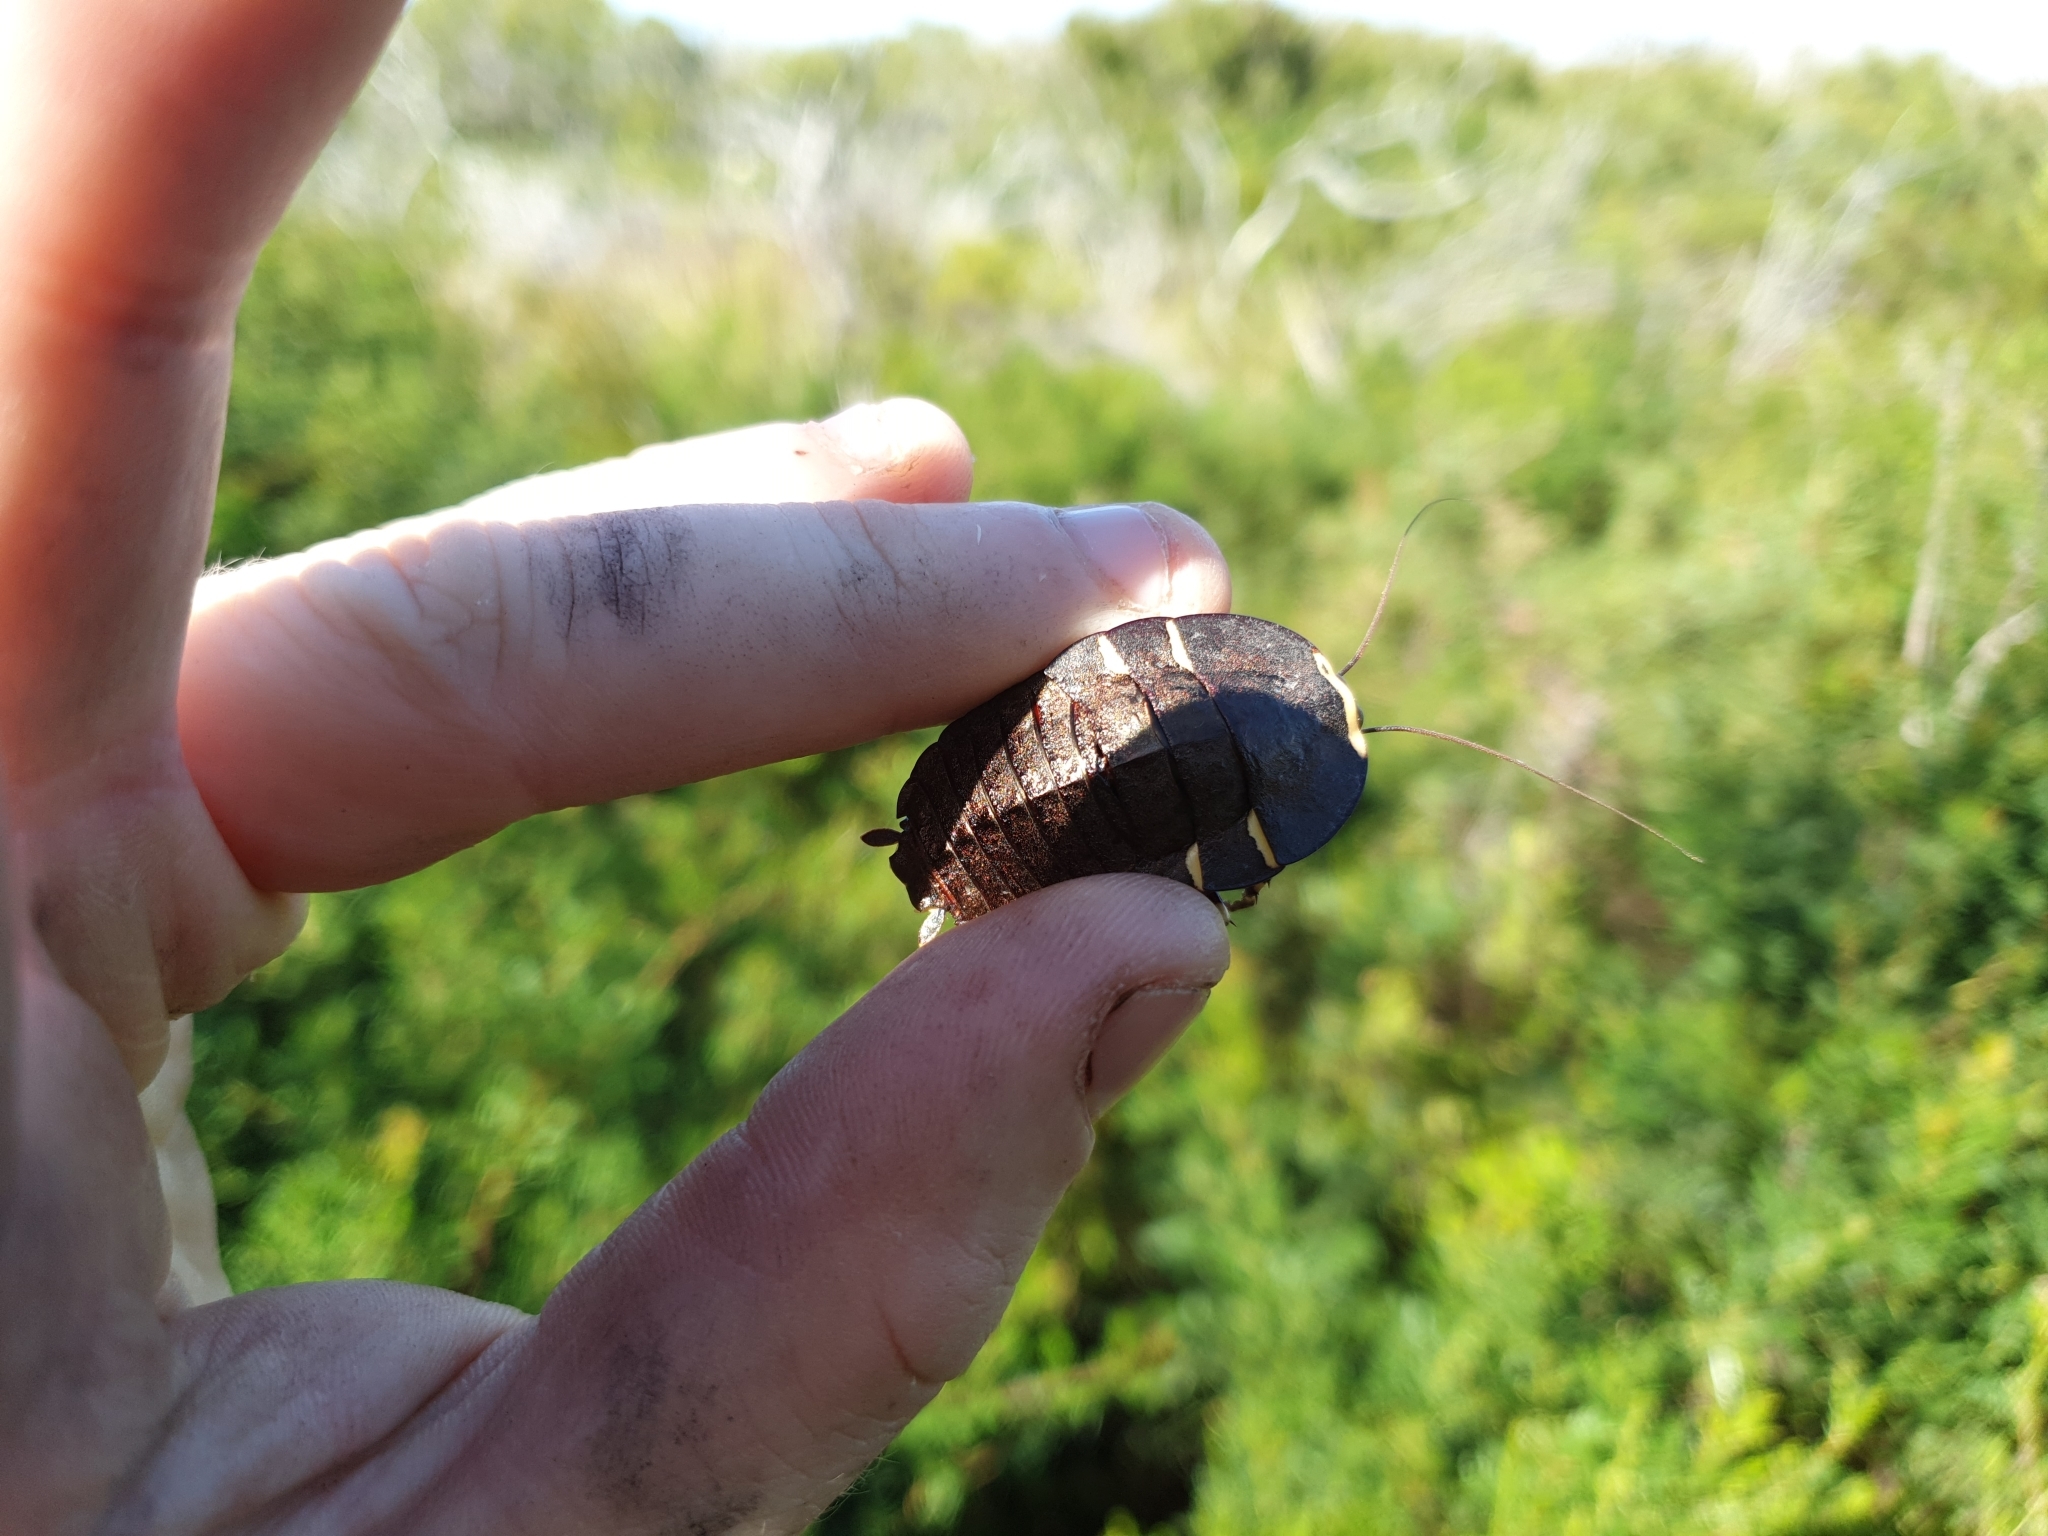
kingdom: Animalia
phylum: Arthropoda
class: Insecta
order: Blattodea
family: Blattidae
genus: Polyzosteria
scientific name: Polyzosteria cuprea
